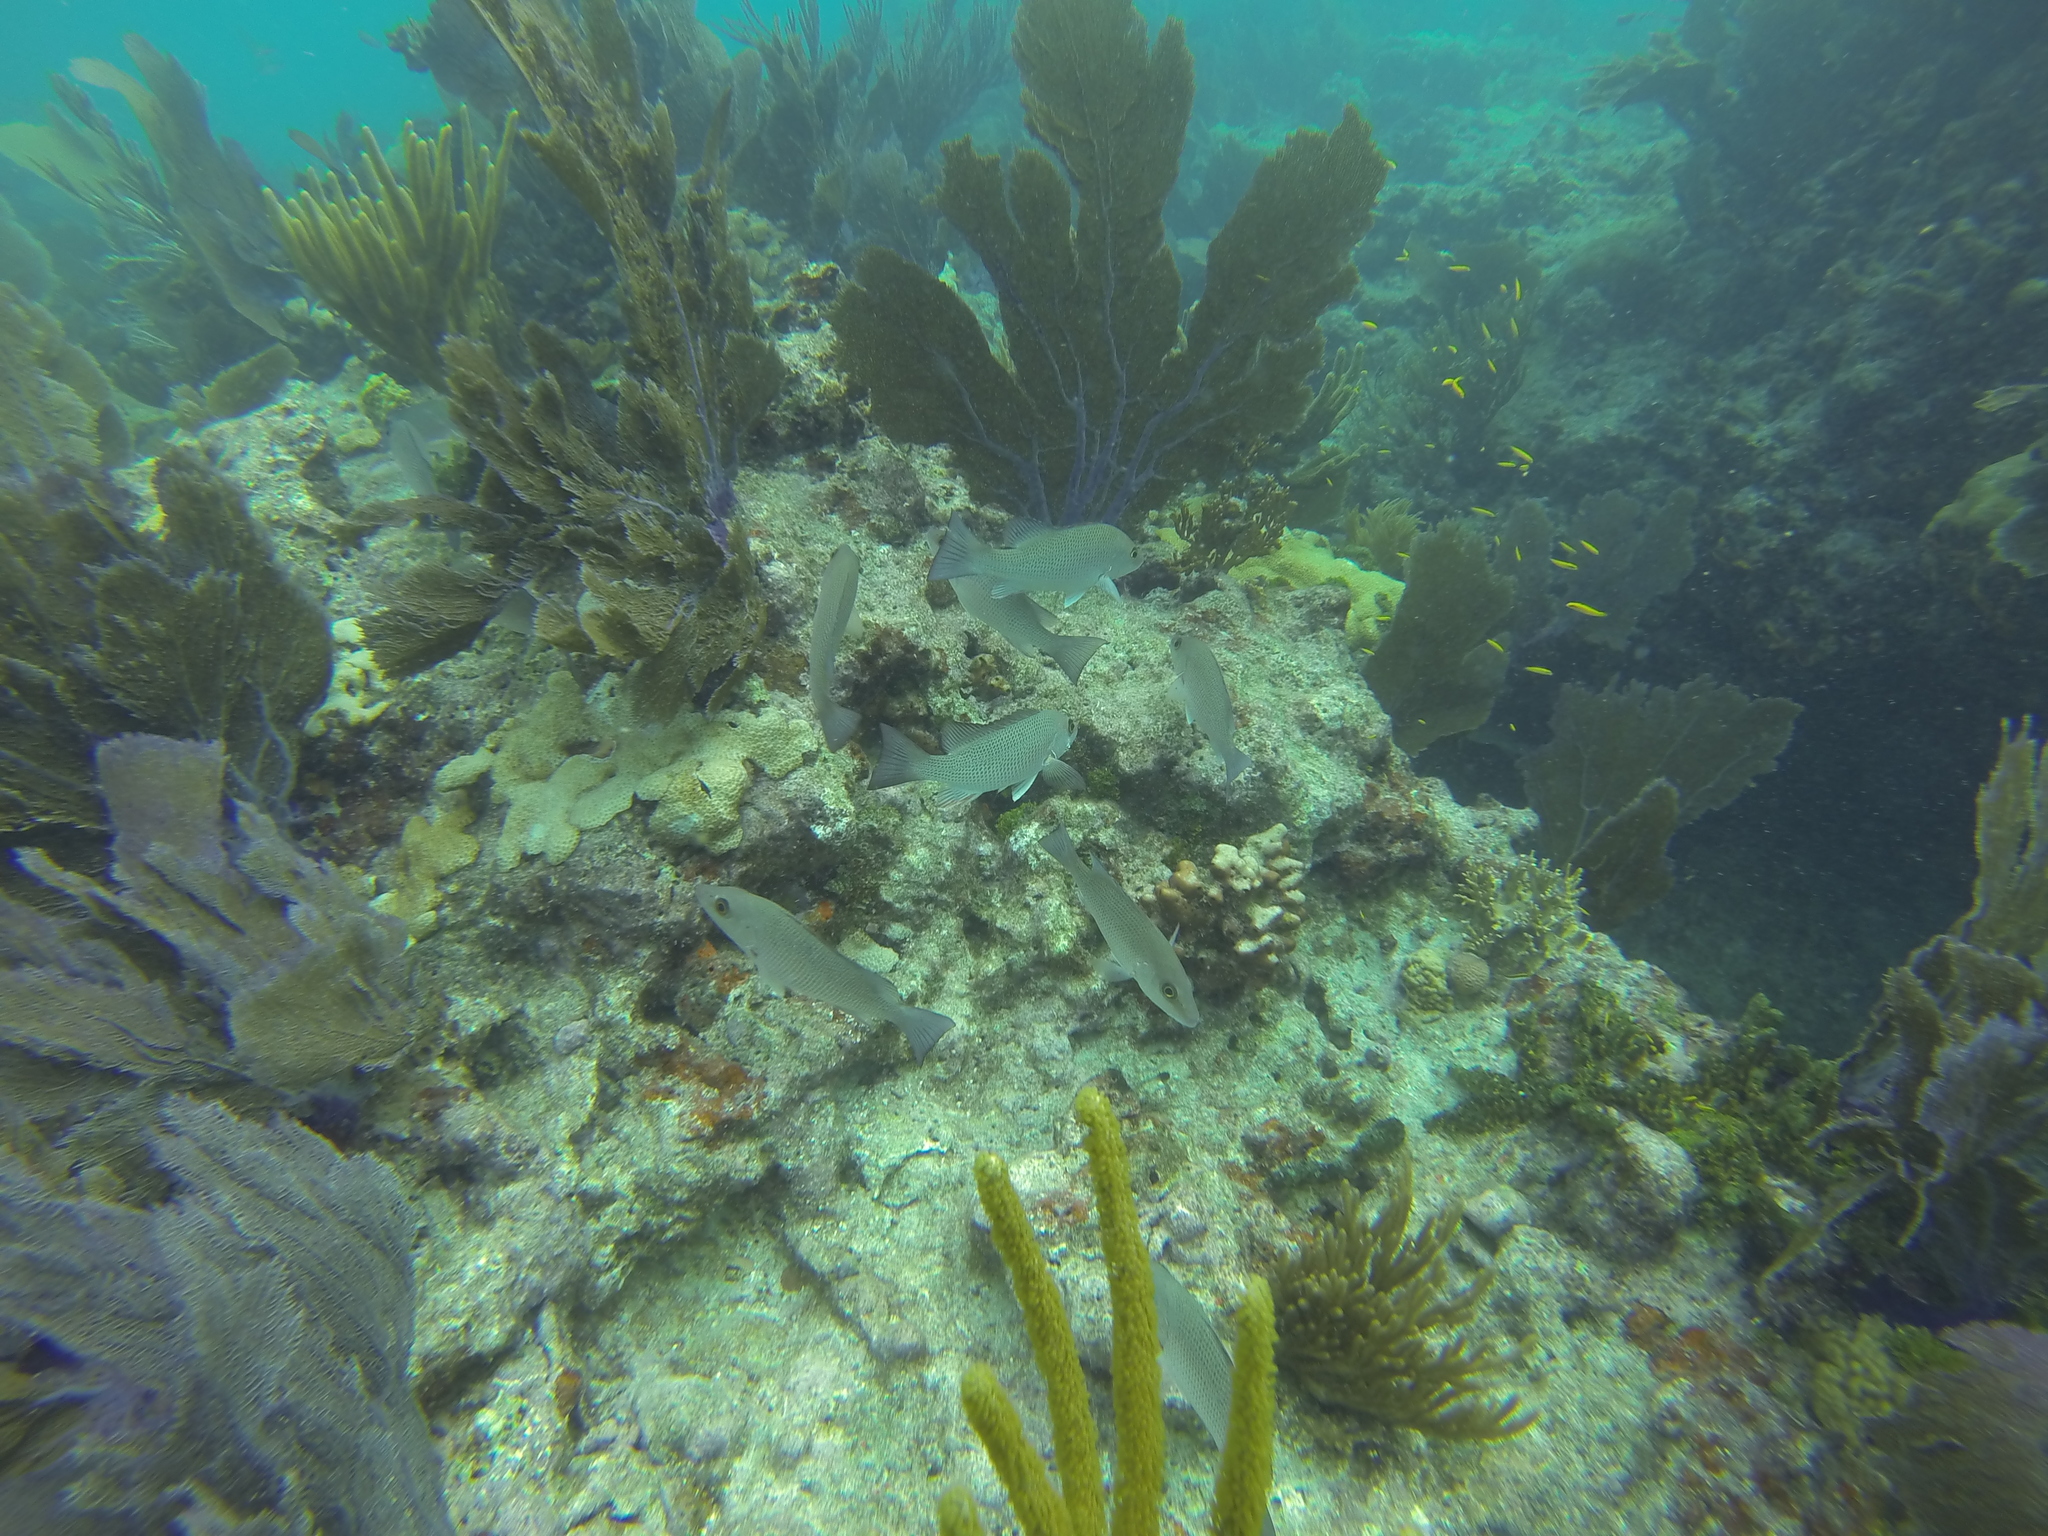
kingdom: Animalia
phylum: Chordata
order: Perciformes
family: Lutjanidae
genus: Lutjanus
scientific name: Lutjanus griseus
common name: Gray snapper
